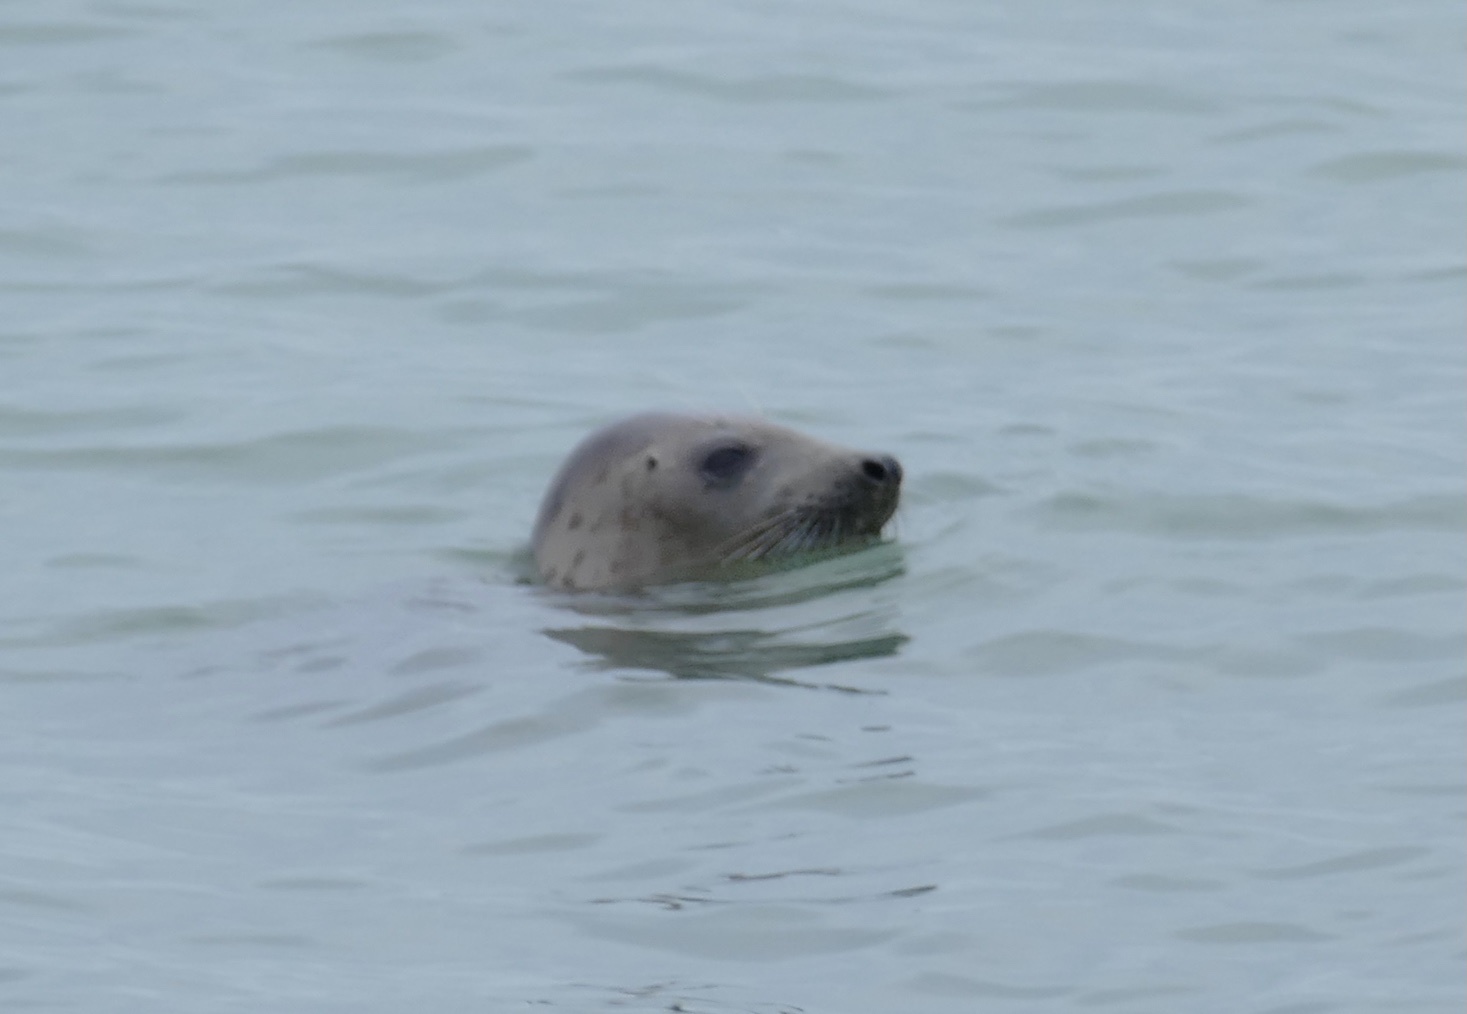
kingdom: Animalia
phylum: Chordata
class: Mammalia
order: Carnivora
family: Phocidae
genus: Halichoerus
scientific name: Halichoerus grypus
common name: Grey seal
